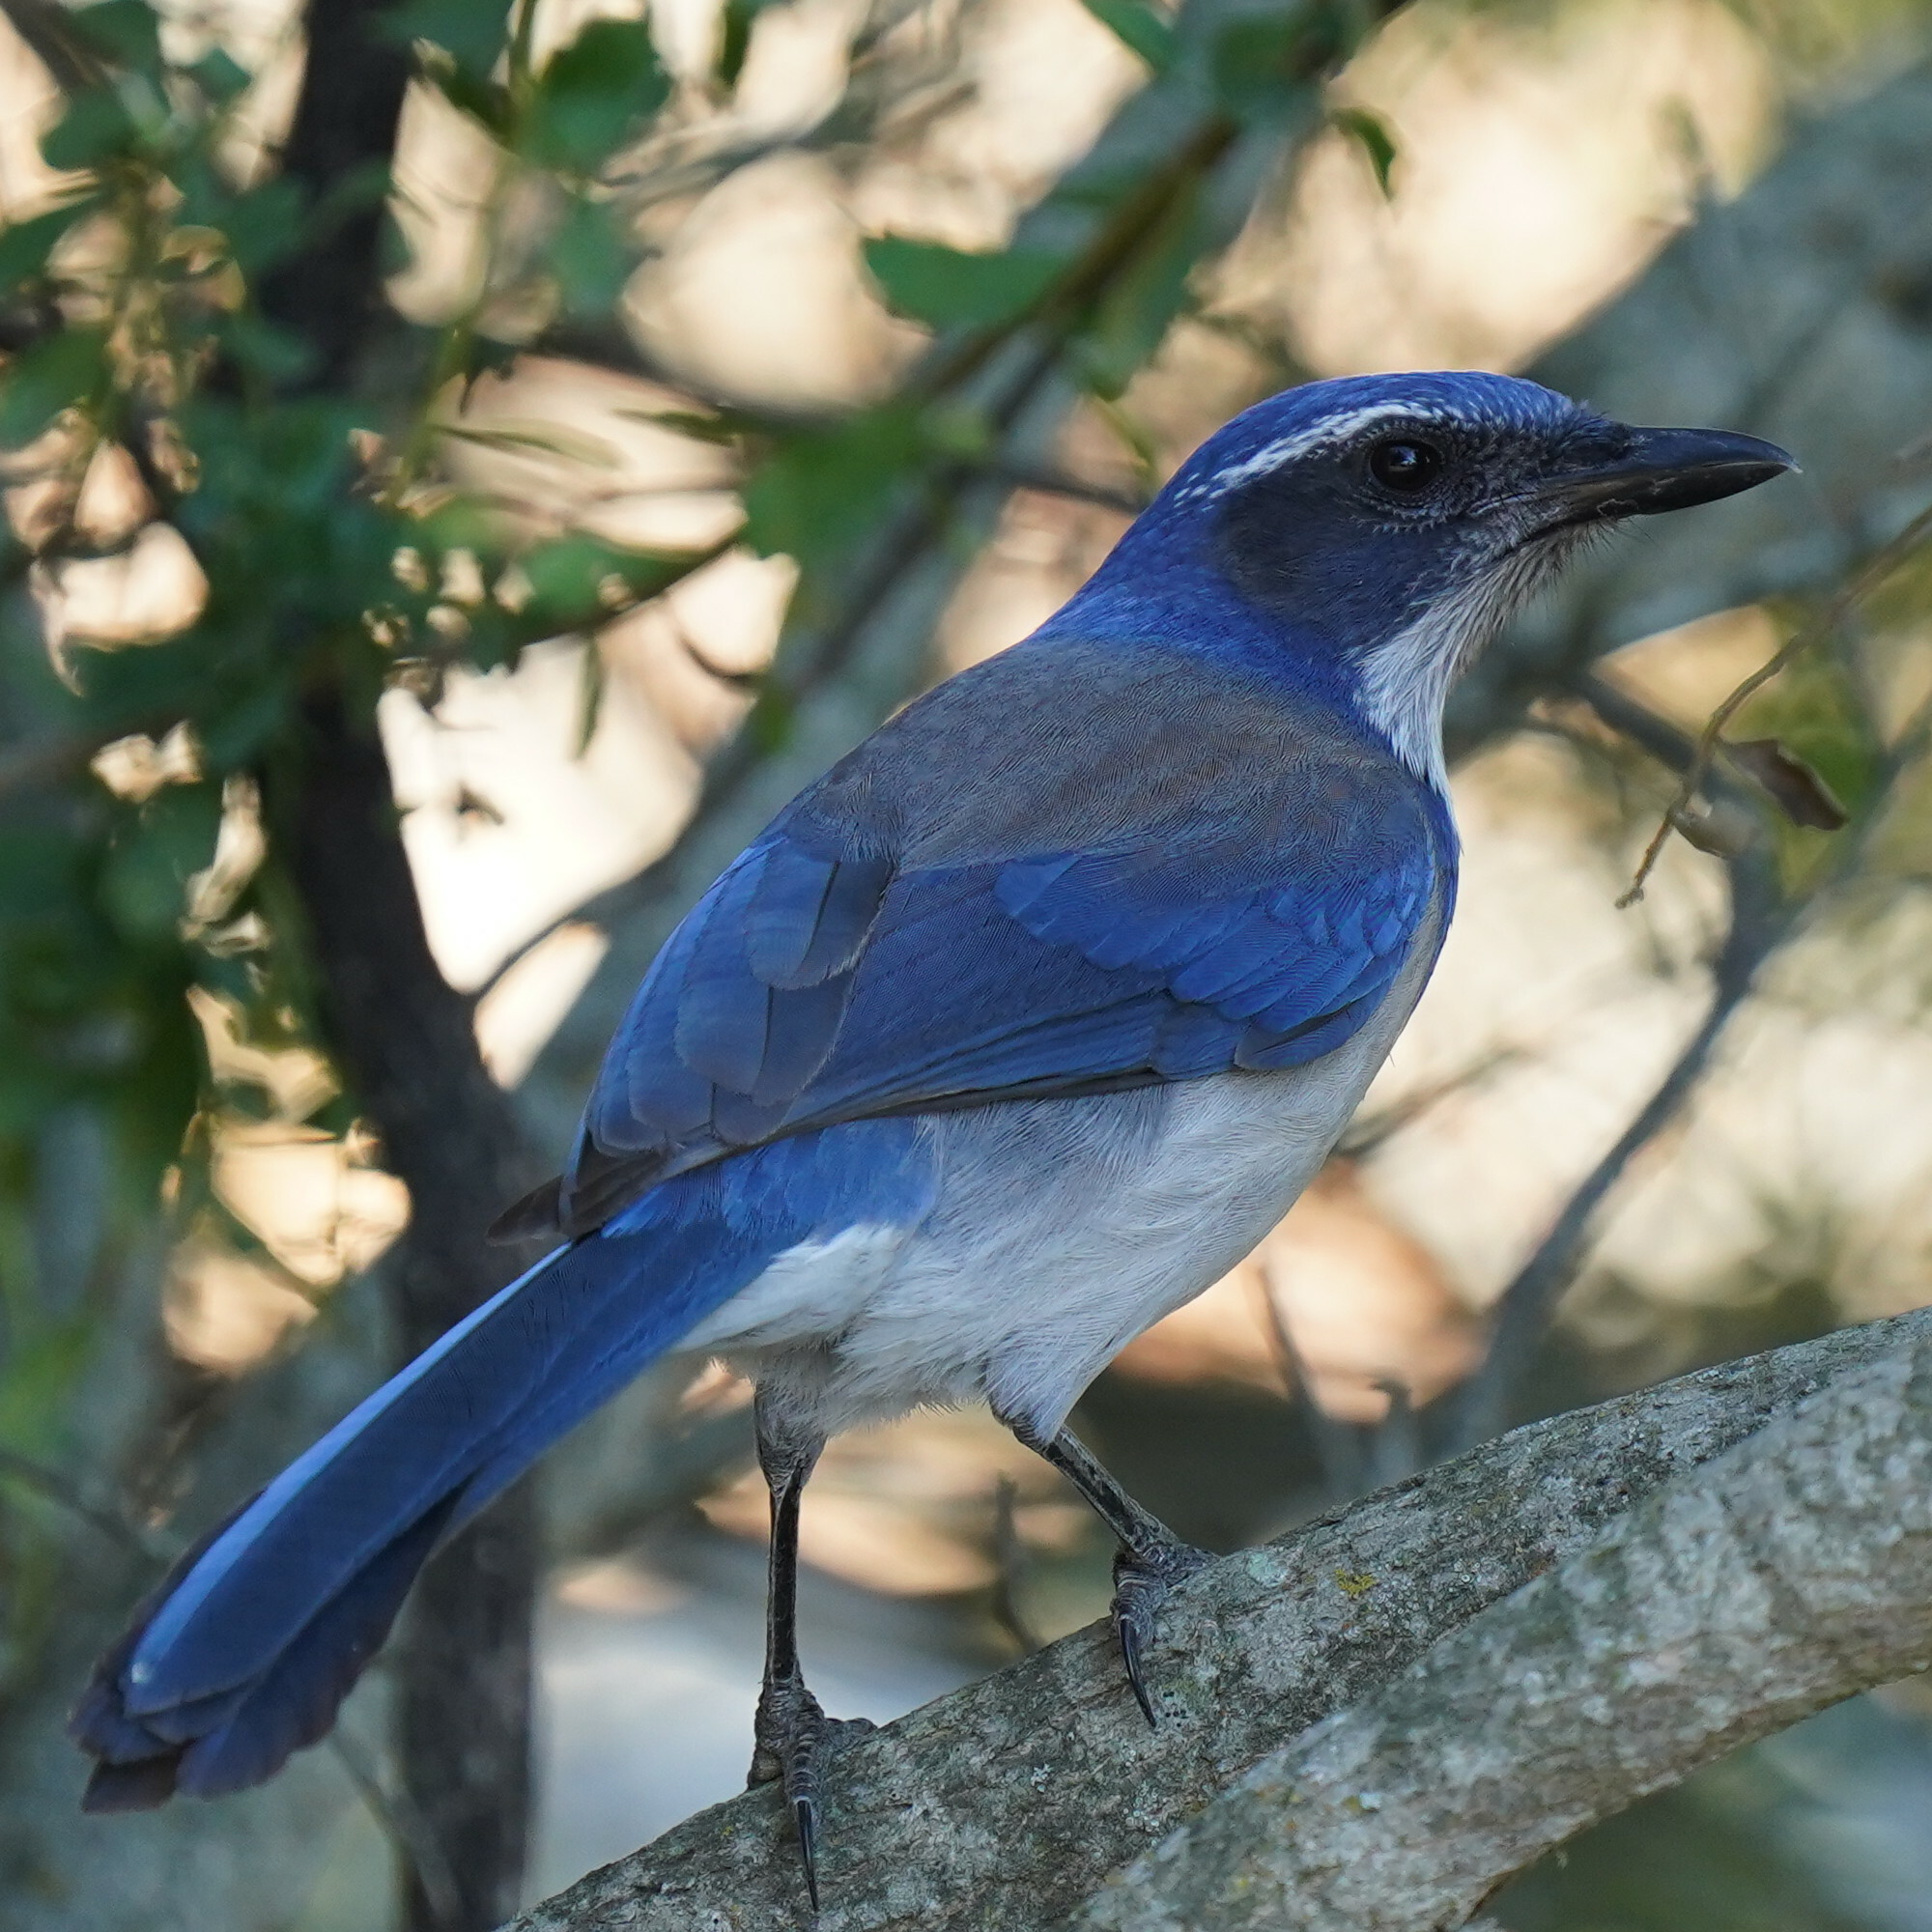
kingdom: Animalia
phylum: Chordata
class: Aves
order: Passeriformes
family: Corvidae
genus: Aphelocoma
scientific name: Aphelocoma californica
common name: California scrub-jay
